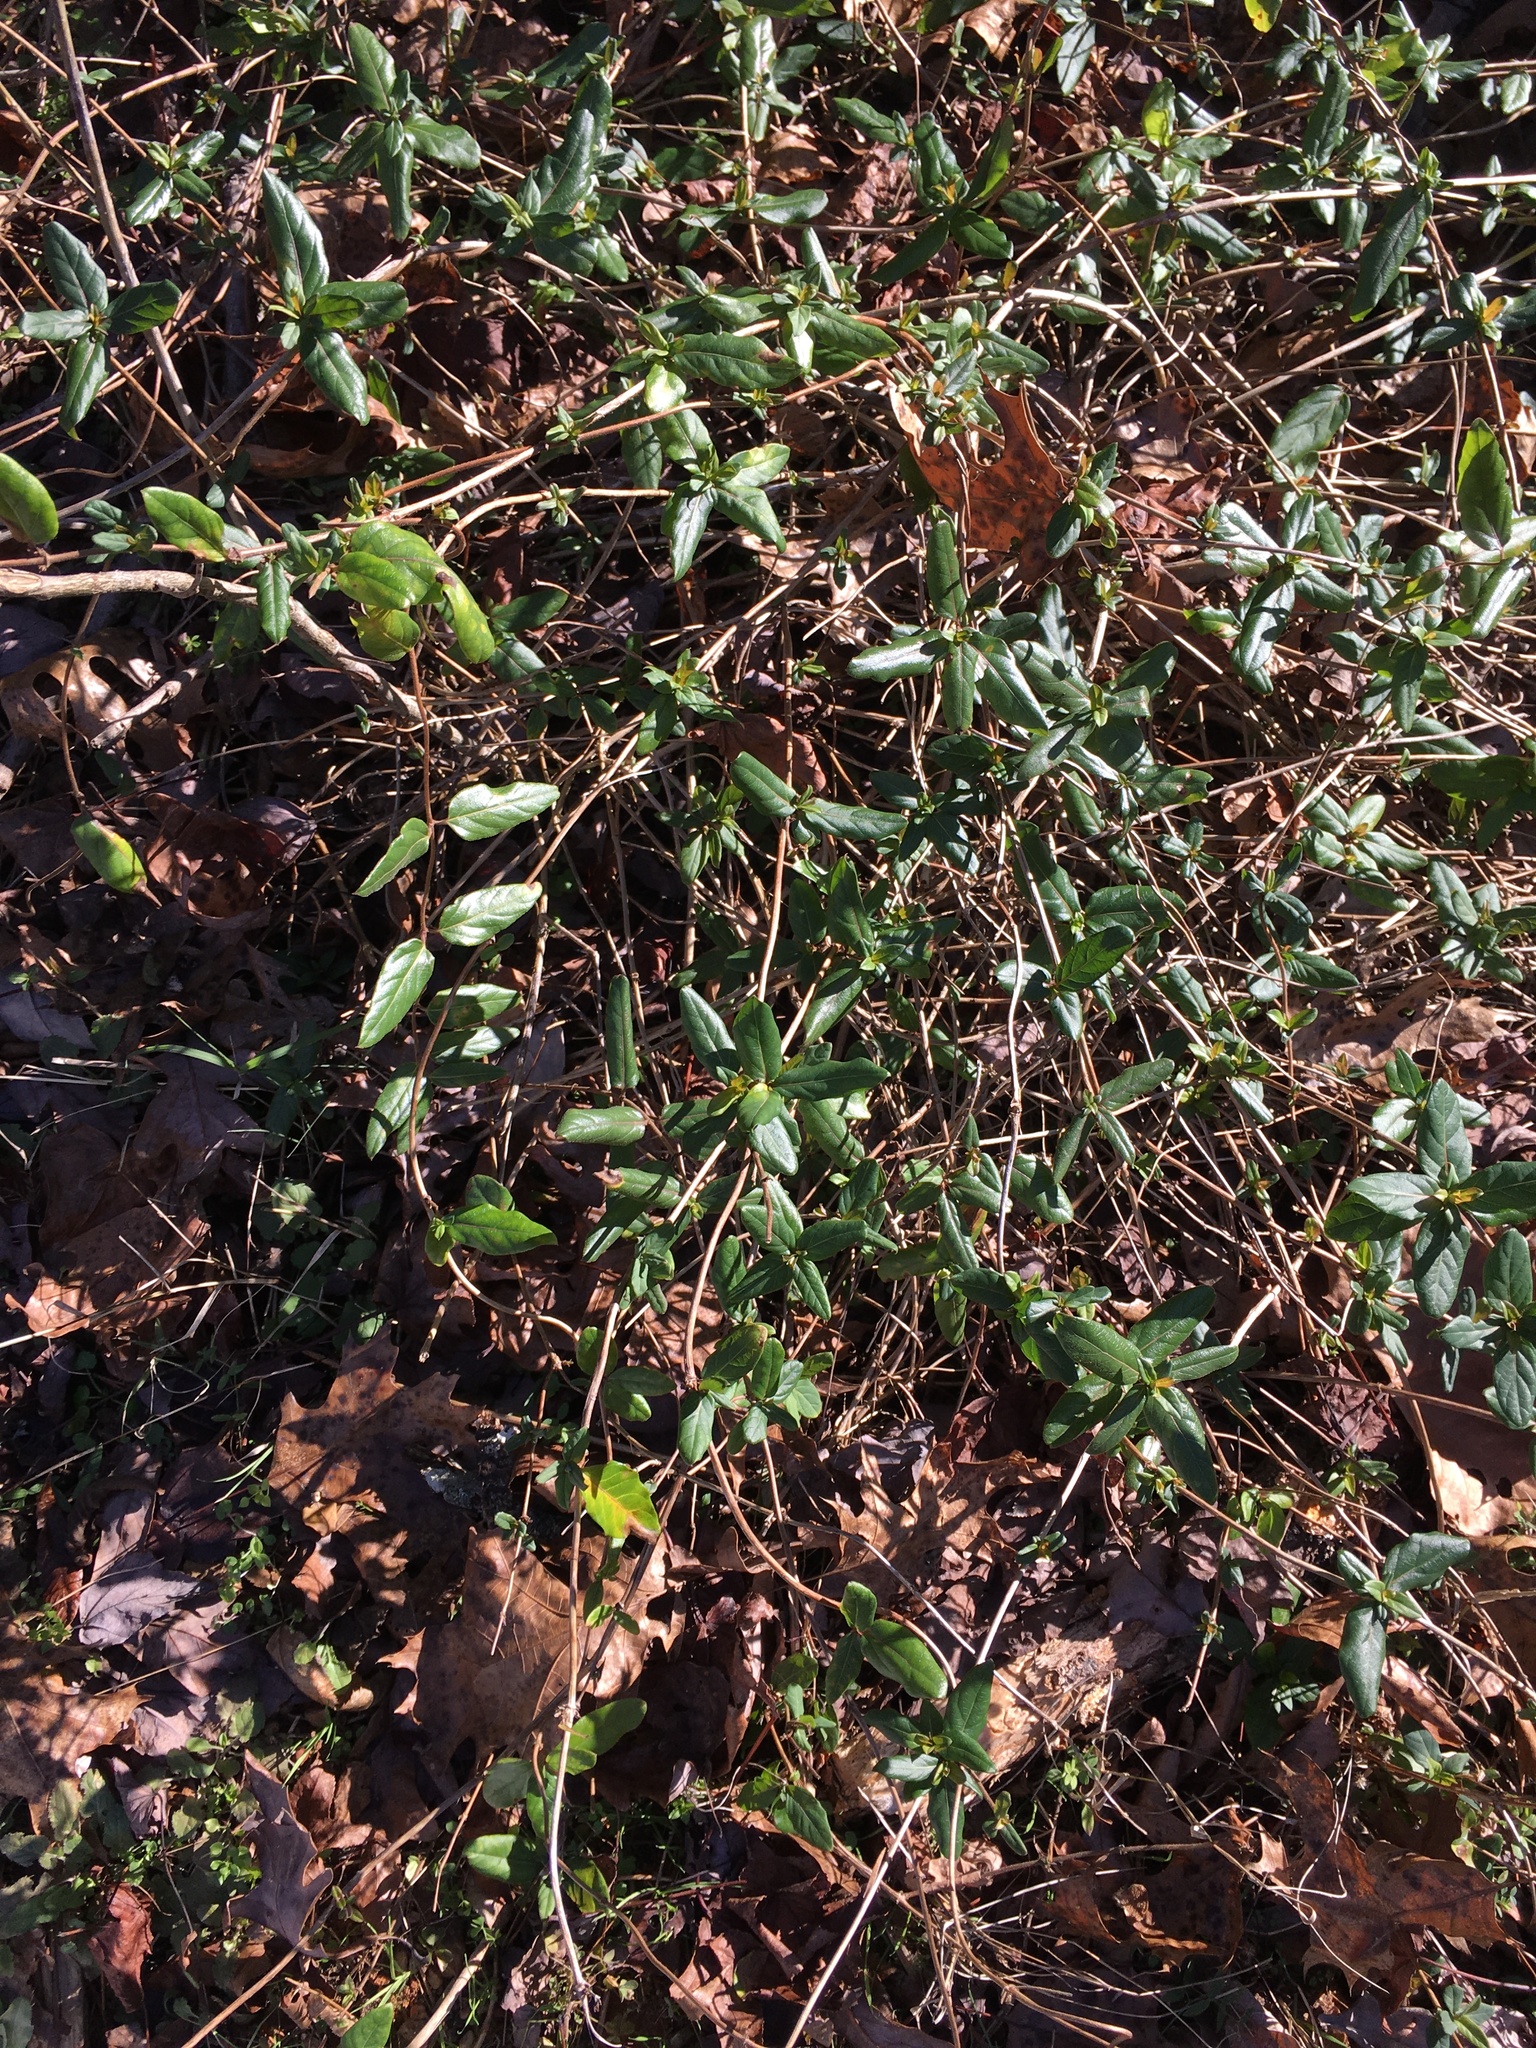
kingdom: Plantae
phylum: Tracheophyta
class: Magnoliopsida
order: Dipsacales
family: Caprifoliaceae
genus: Lonicera
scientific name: Lonicera japonica
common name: Japanese honeysuckle
